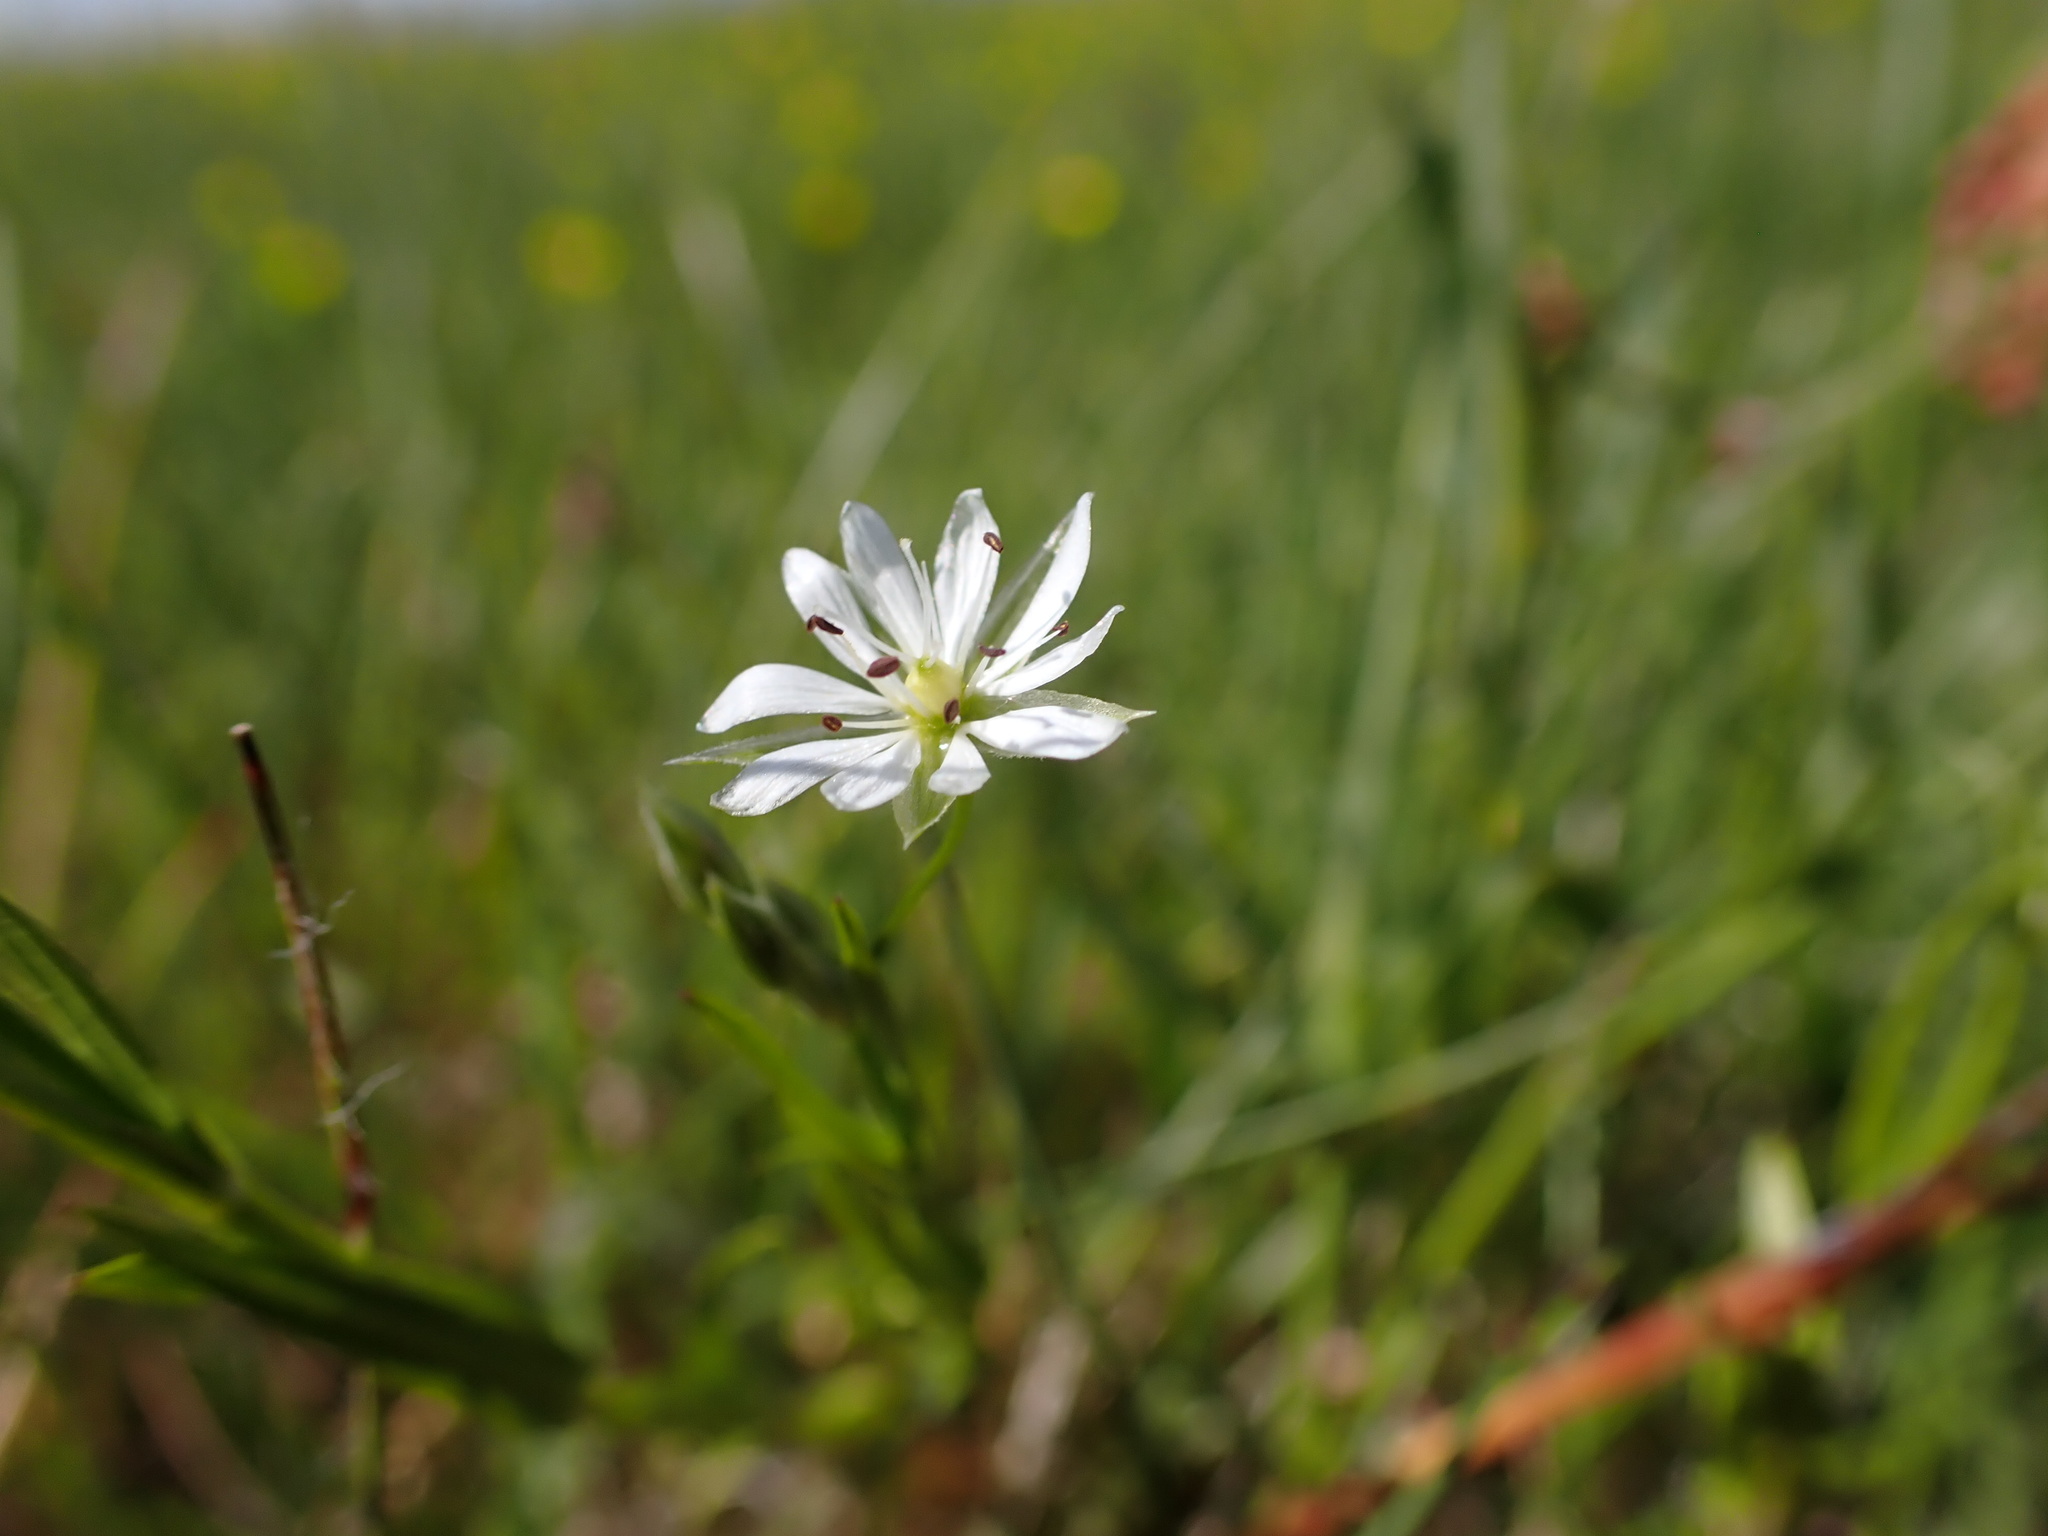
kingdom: Plantae
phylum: Tracheophyta
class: Magnoliopsida
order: Caryophyllales
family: Caryophyllaceae
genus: Stellaria
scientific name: Stellaria graminea
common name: Grass-like starwort
